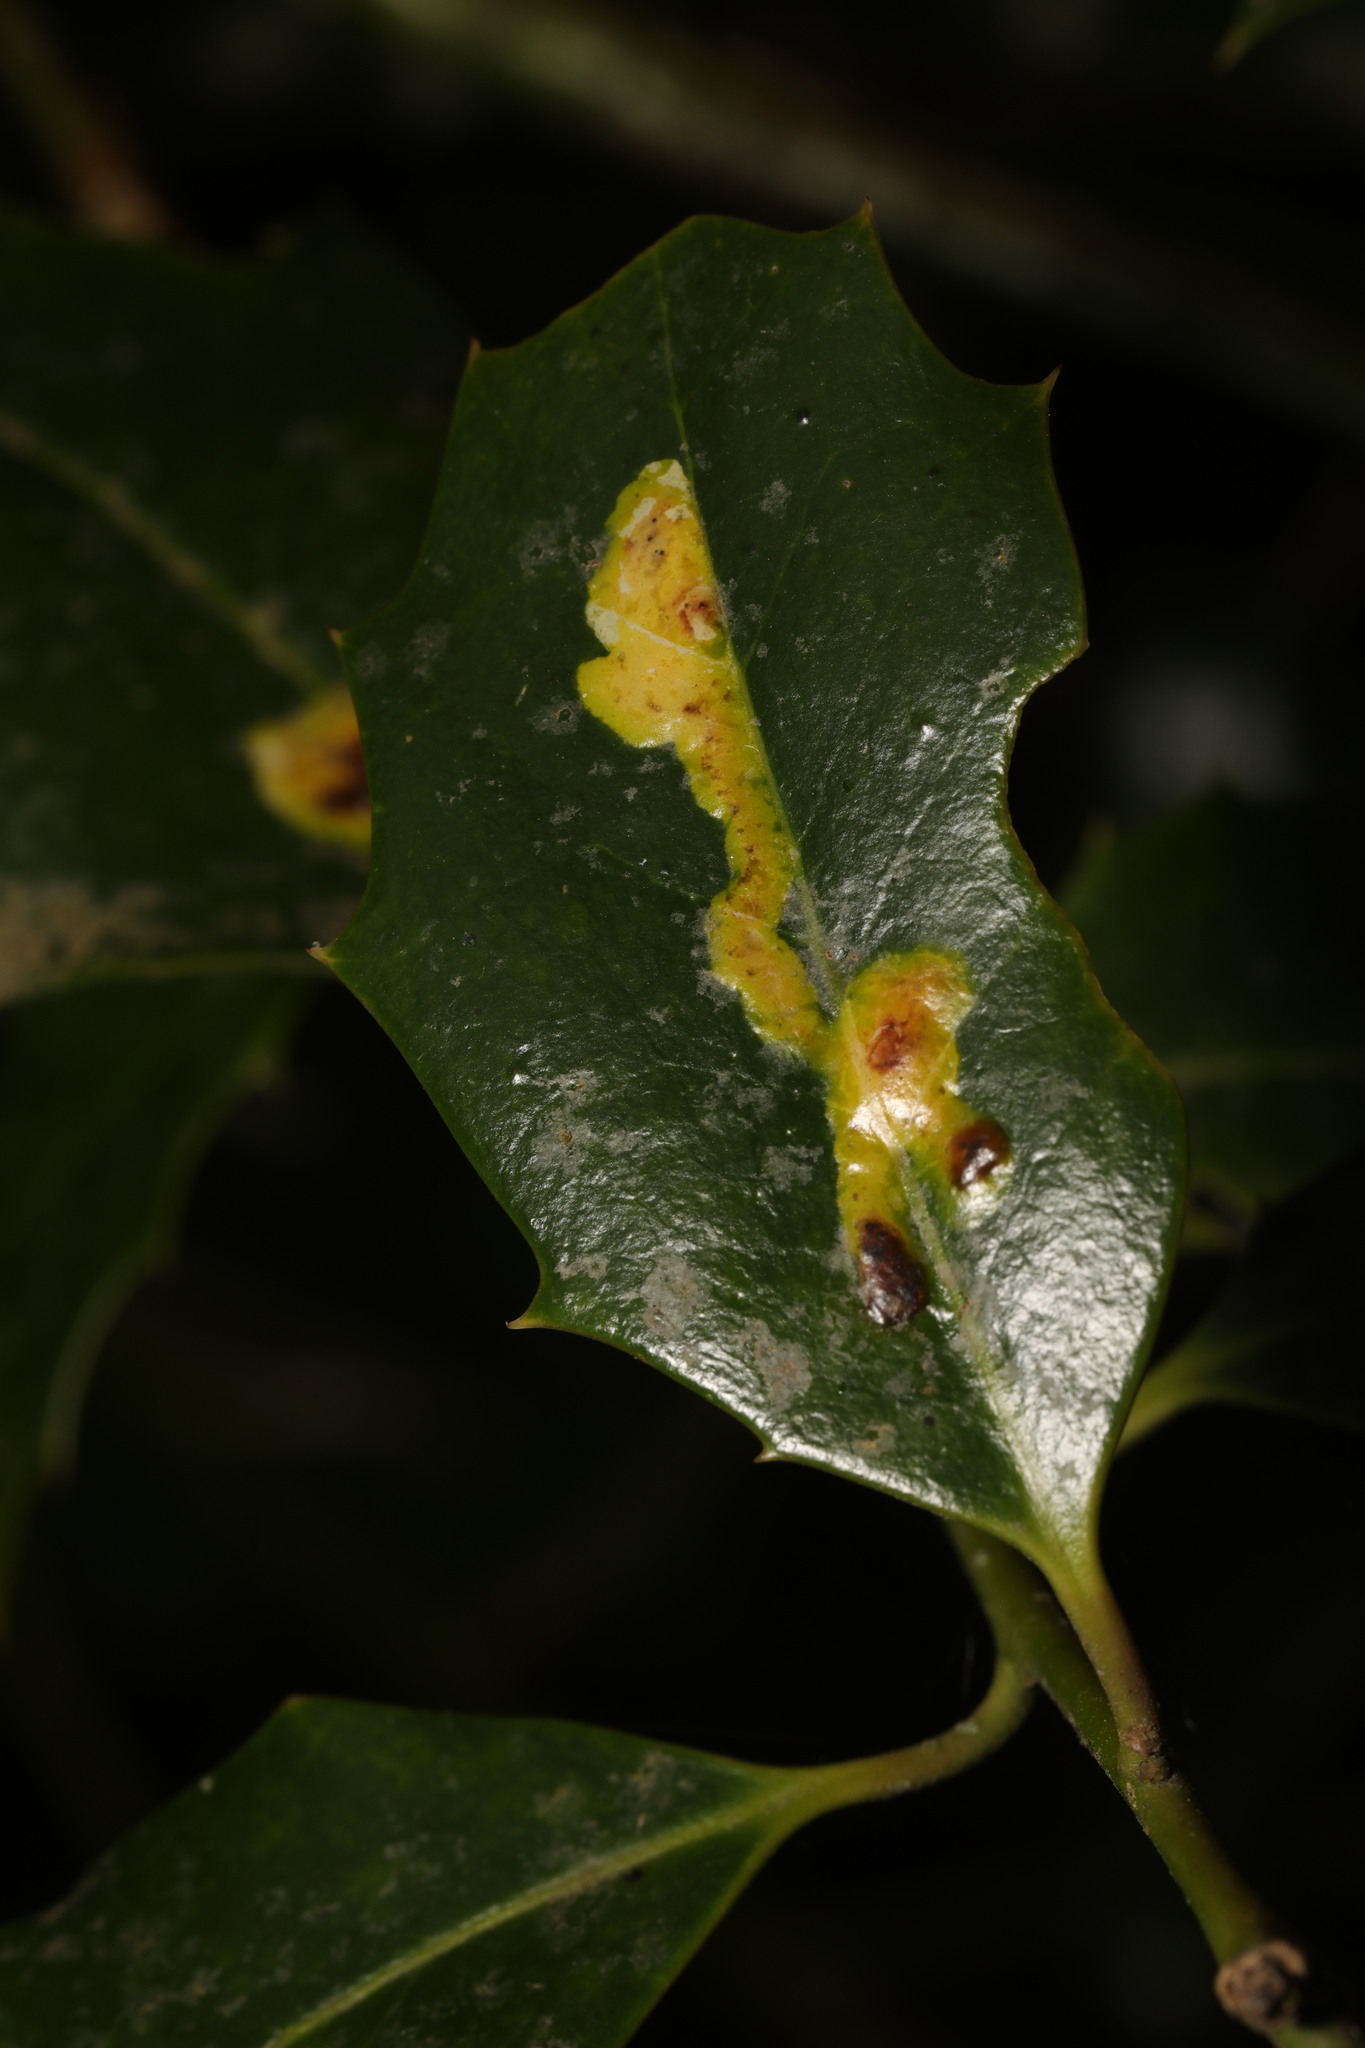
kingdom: Animalia
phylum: Arthropoda
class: Insecta
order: Diptera
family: Agromyzidae
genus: Phytomyza
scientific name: Phytomyza ilicis
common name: Holly leafminer
